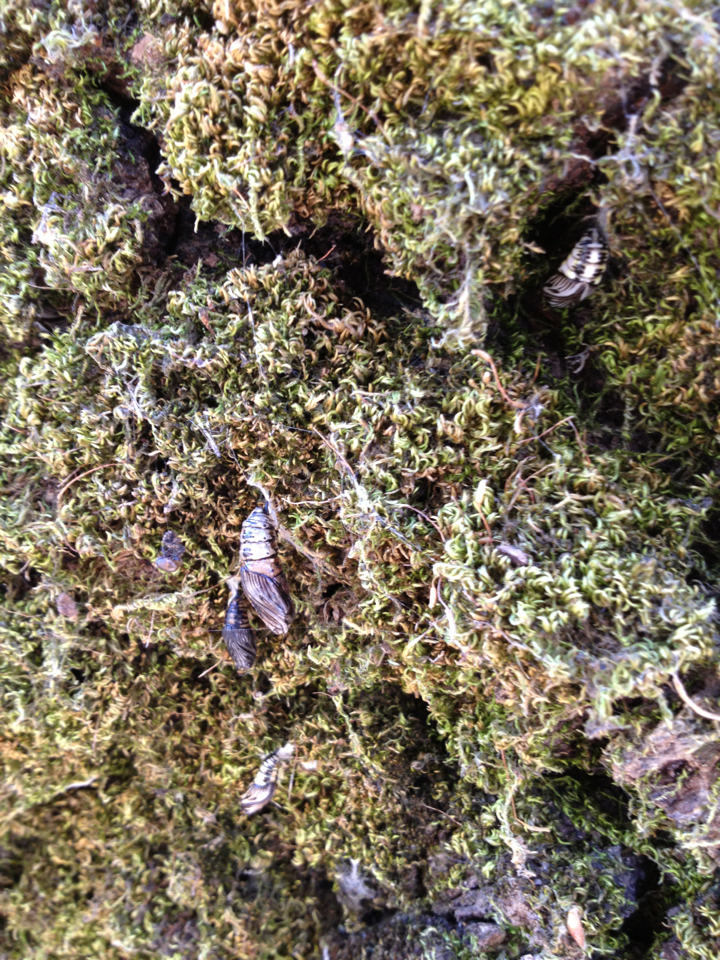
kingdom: Animalia
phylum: Arthropoda
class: Insecta
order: Lepidoptera
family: Notodontidae
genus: Phryganidia
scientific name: Phryganidia californica
